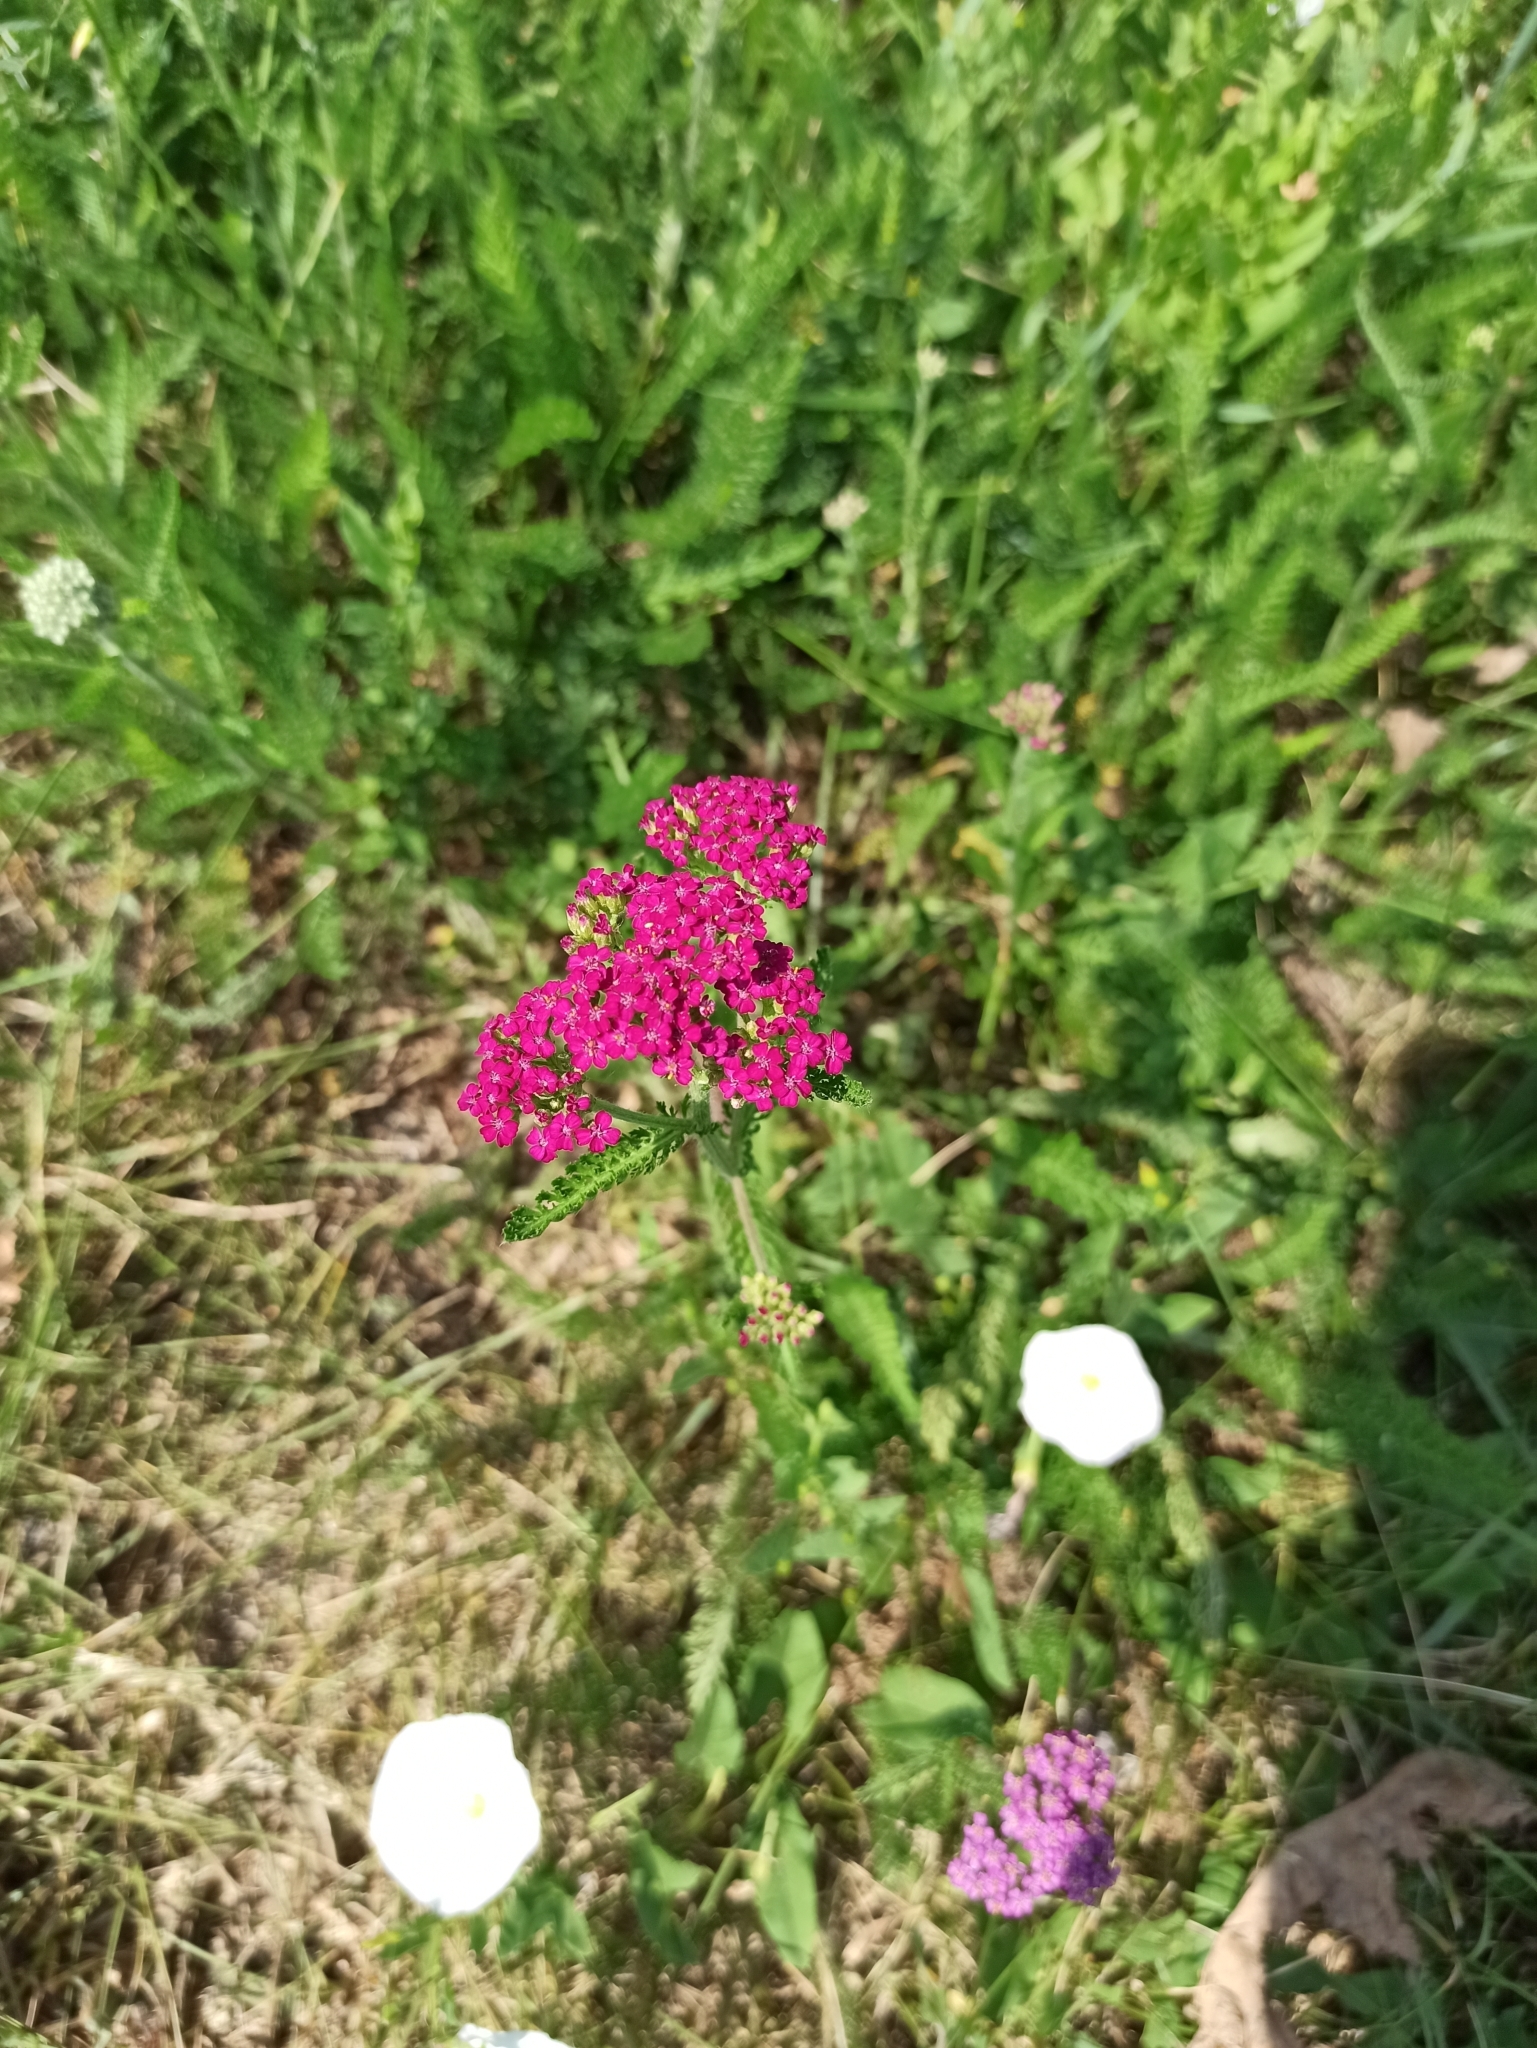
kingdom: Plantae
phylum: Tracheophyta
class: Magnoliopsida
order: Asterales
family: Asteraceae
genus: Achillea
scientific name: Achillea millefolium
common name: Yarrow
